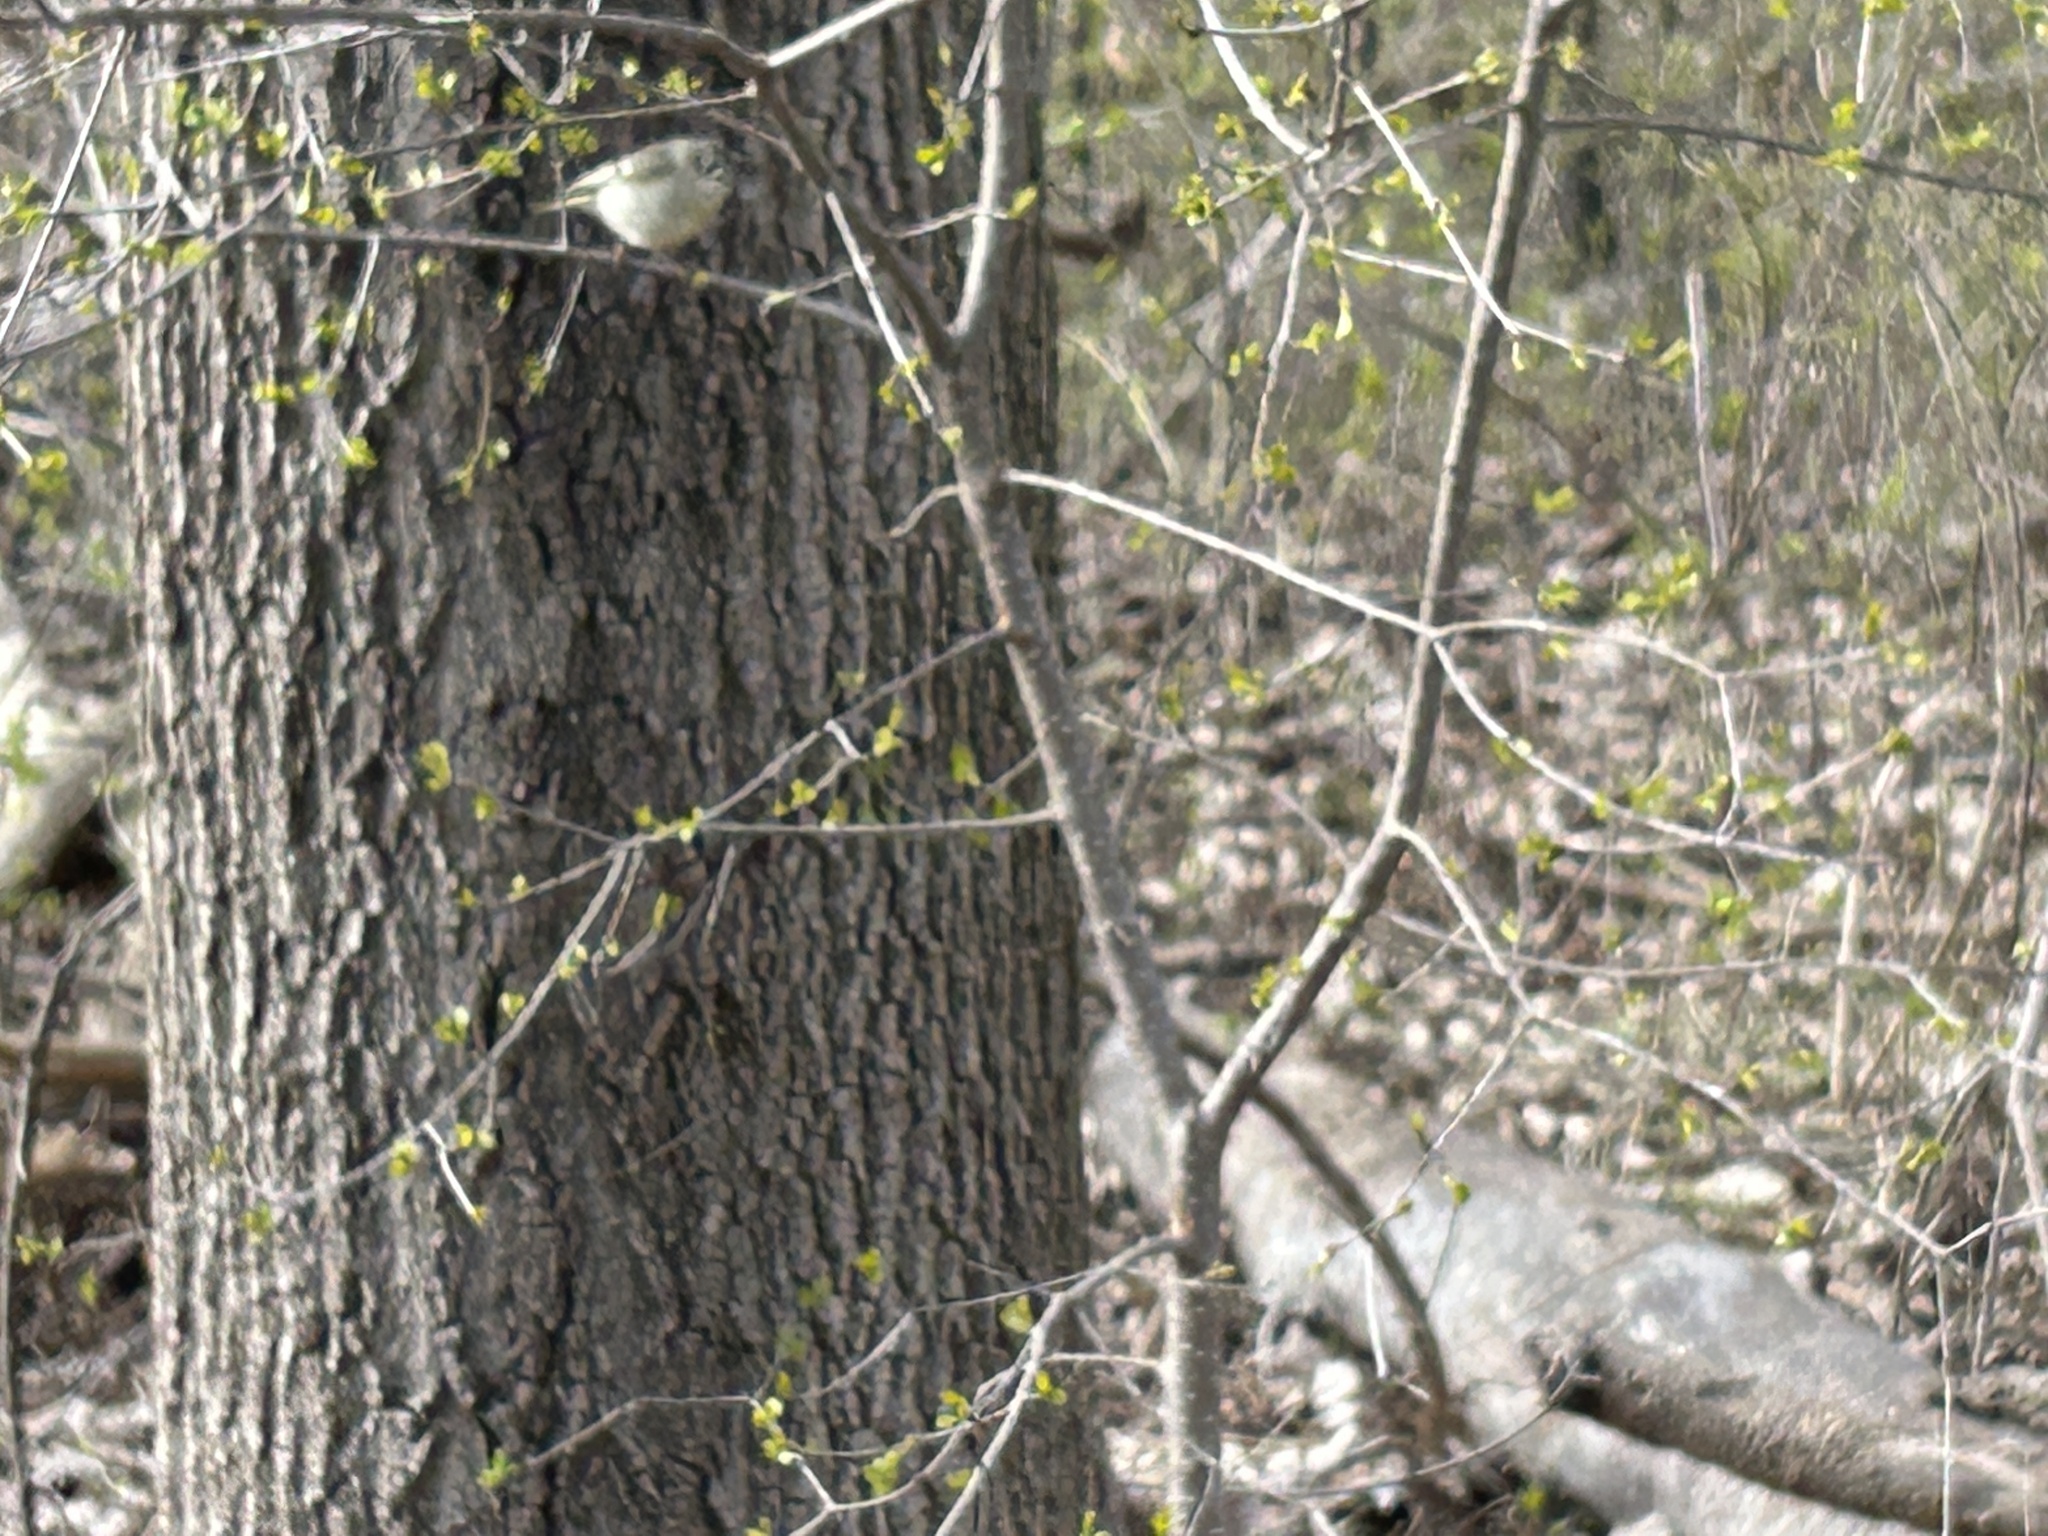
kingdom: Animalia
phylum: Chordata
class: Aves
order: Passeriformes
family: Regulidae
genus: Regulus
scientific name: Regulus calendula
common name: Ruby-crowned kinglet
